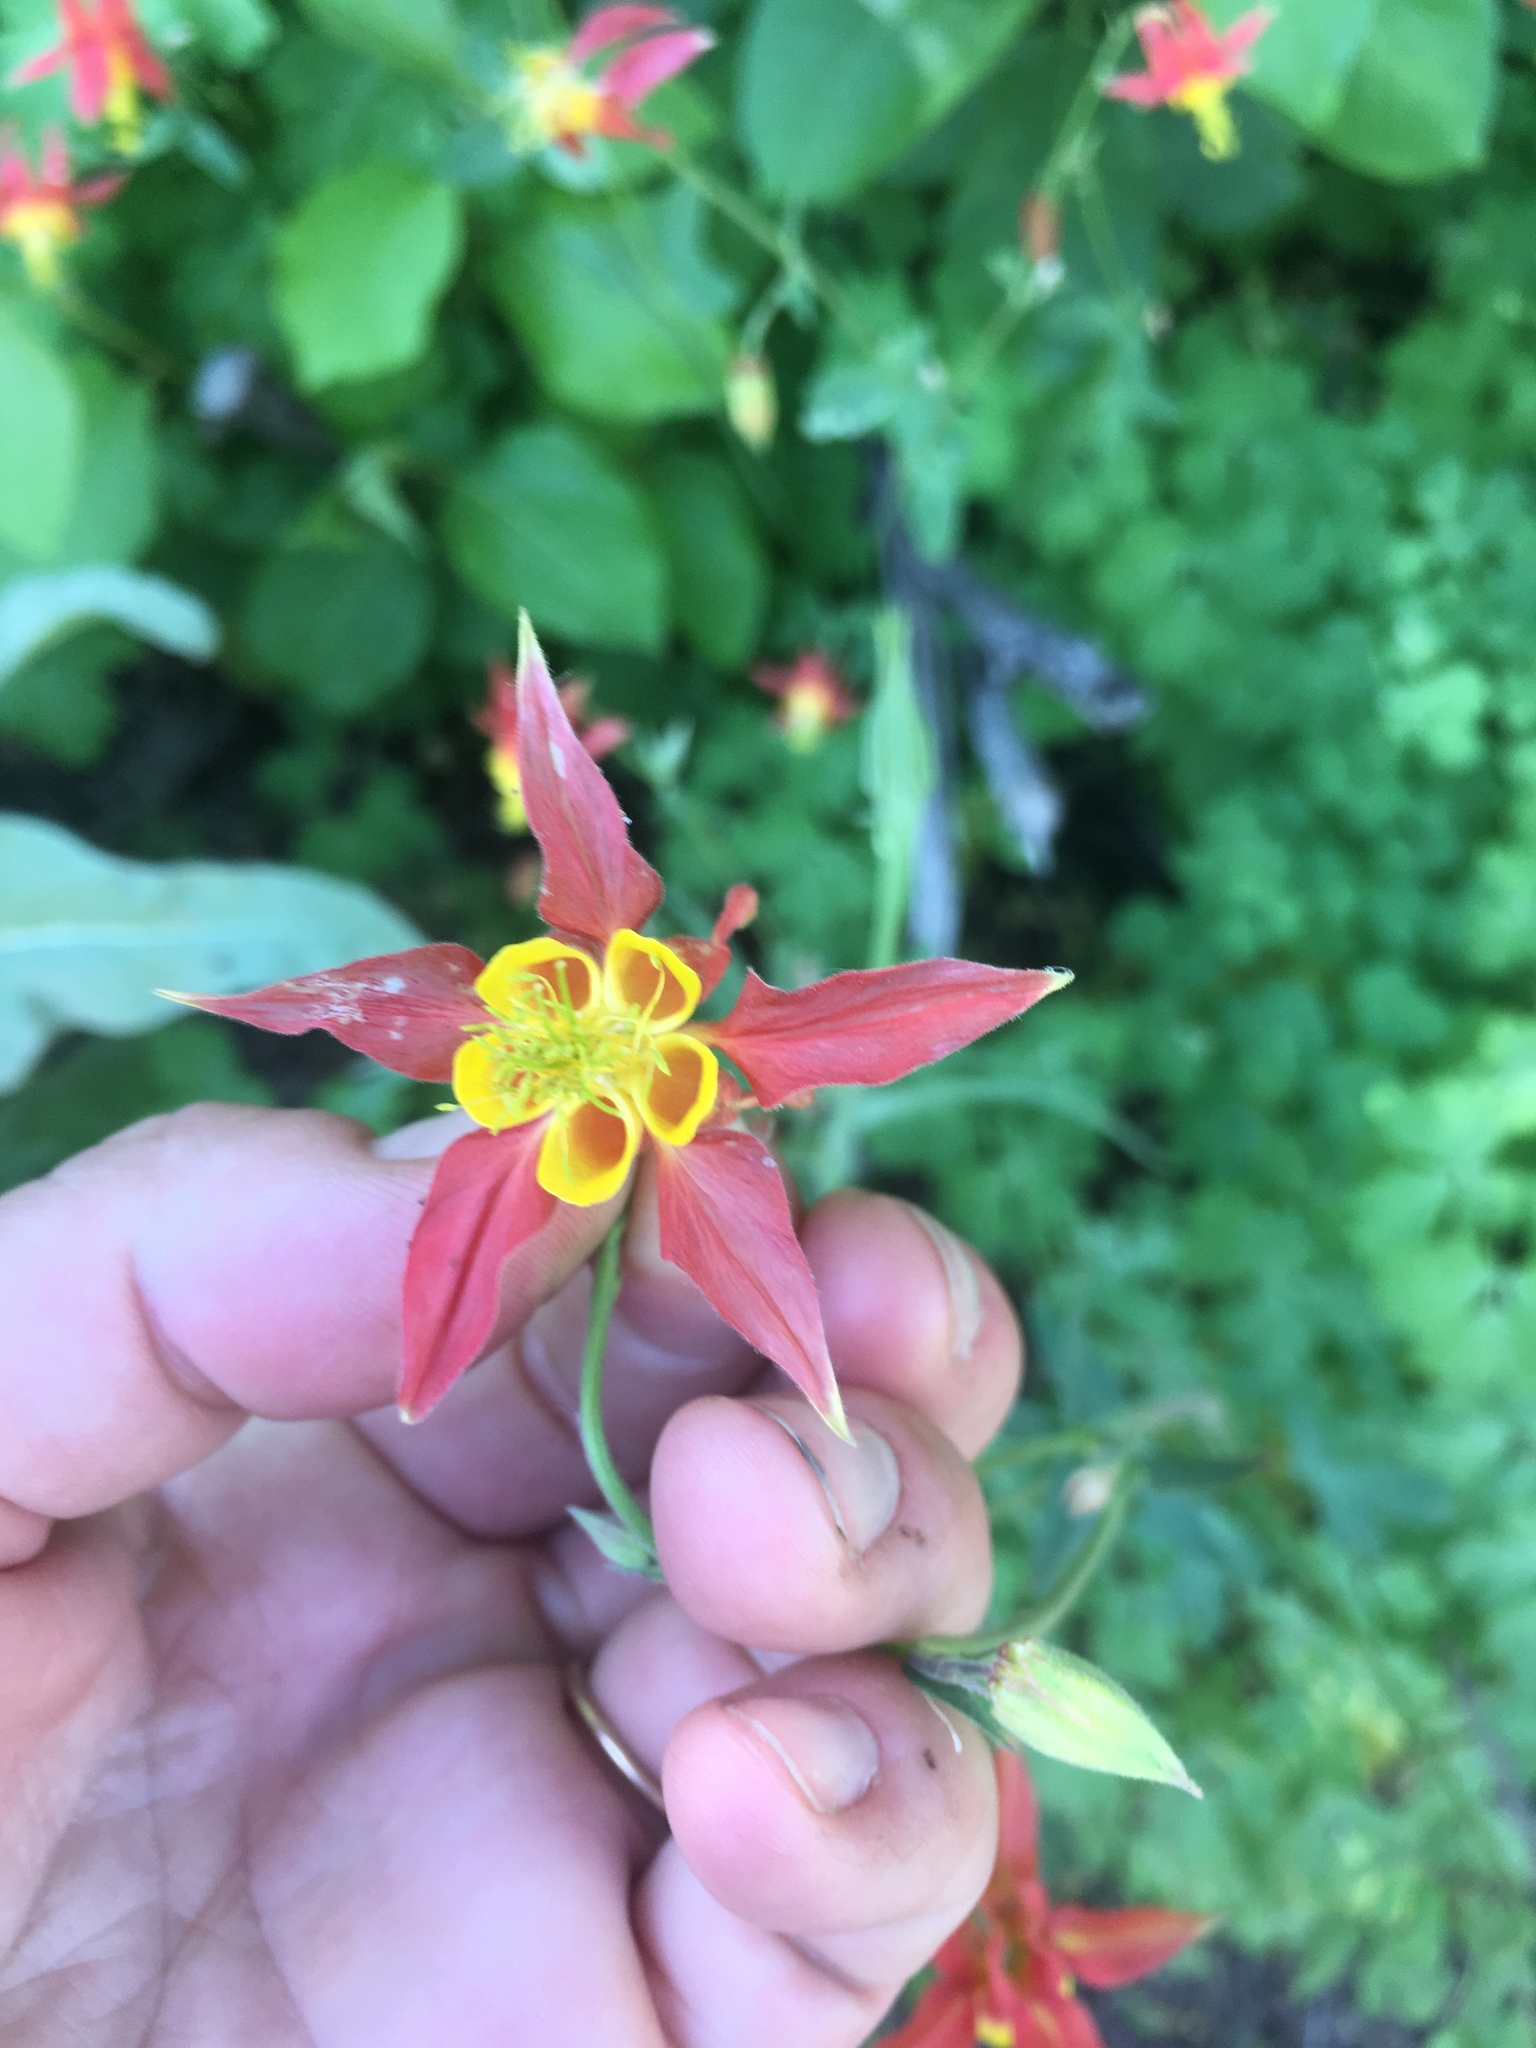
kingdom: Plantae
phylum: Tracheophyta
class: Magnoliopsida
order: Ranunculales
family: Ranunculaceae
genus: Aquilegia
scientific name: Aquilegia formosa
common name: Sitka columbine
